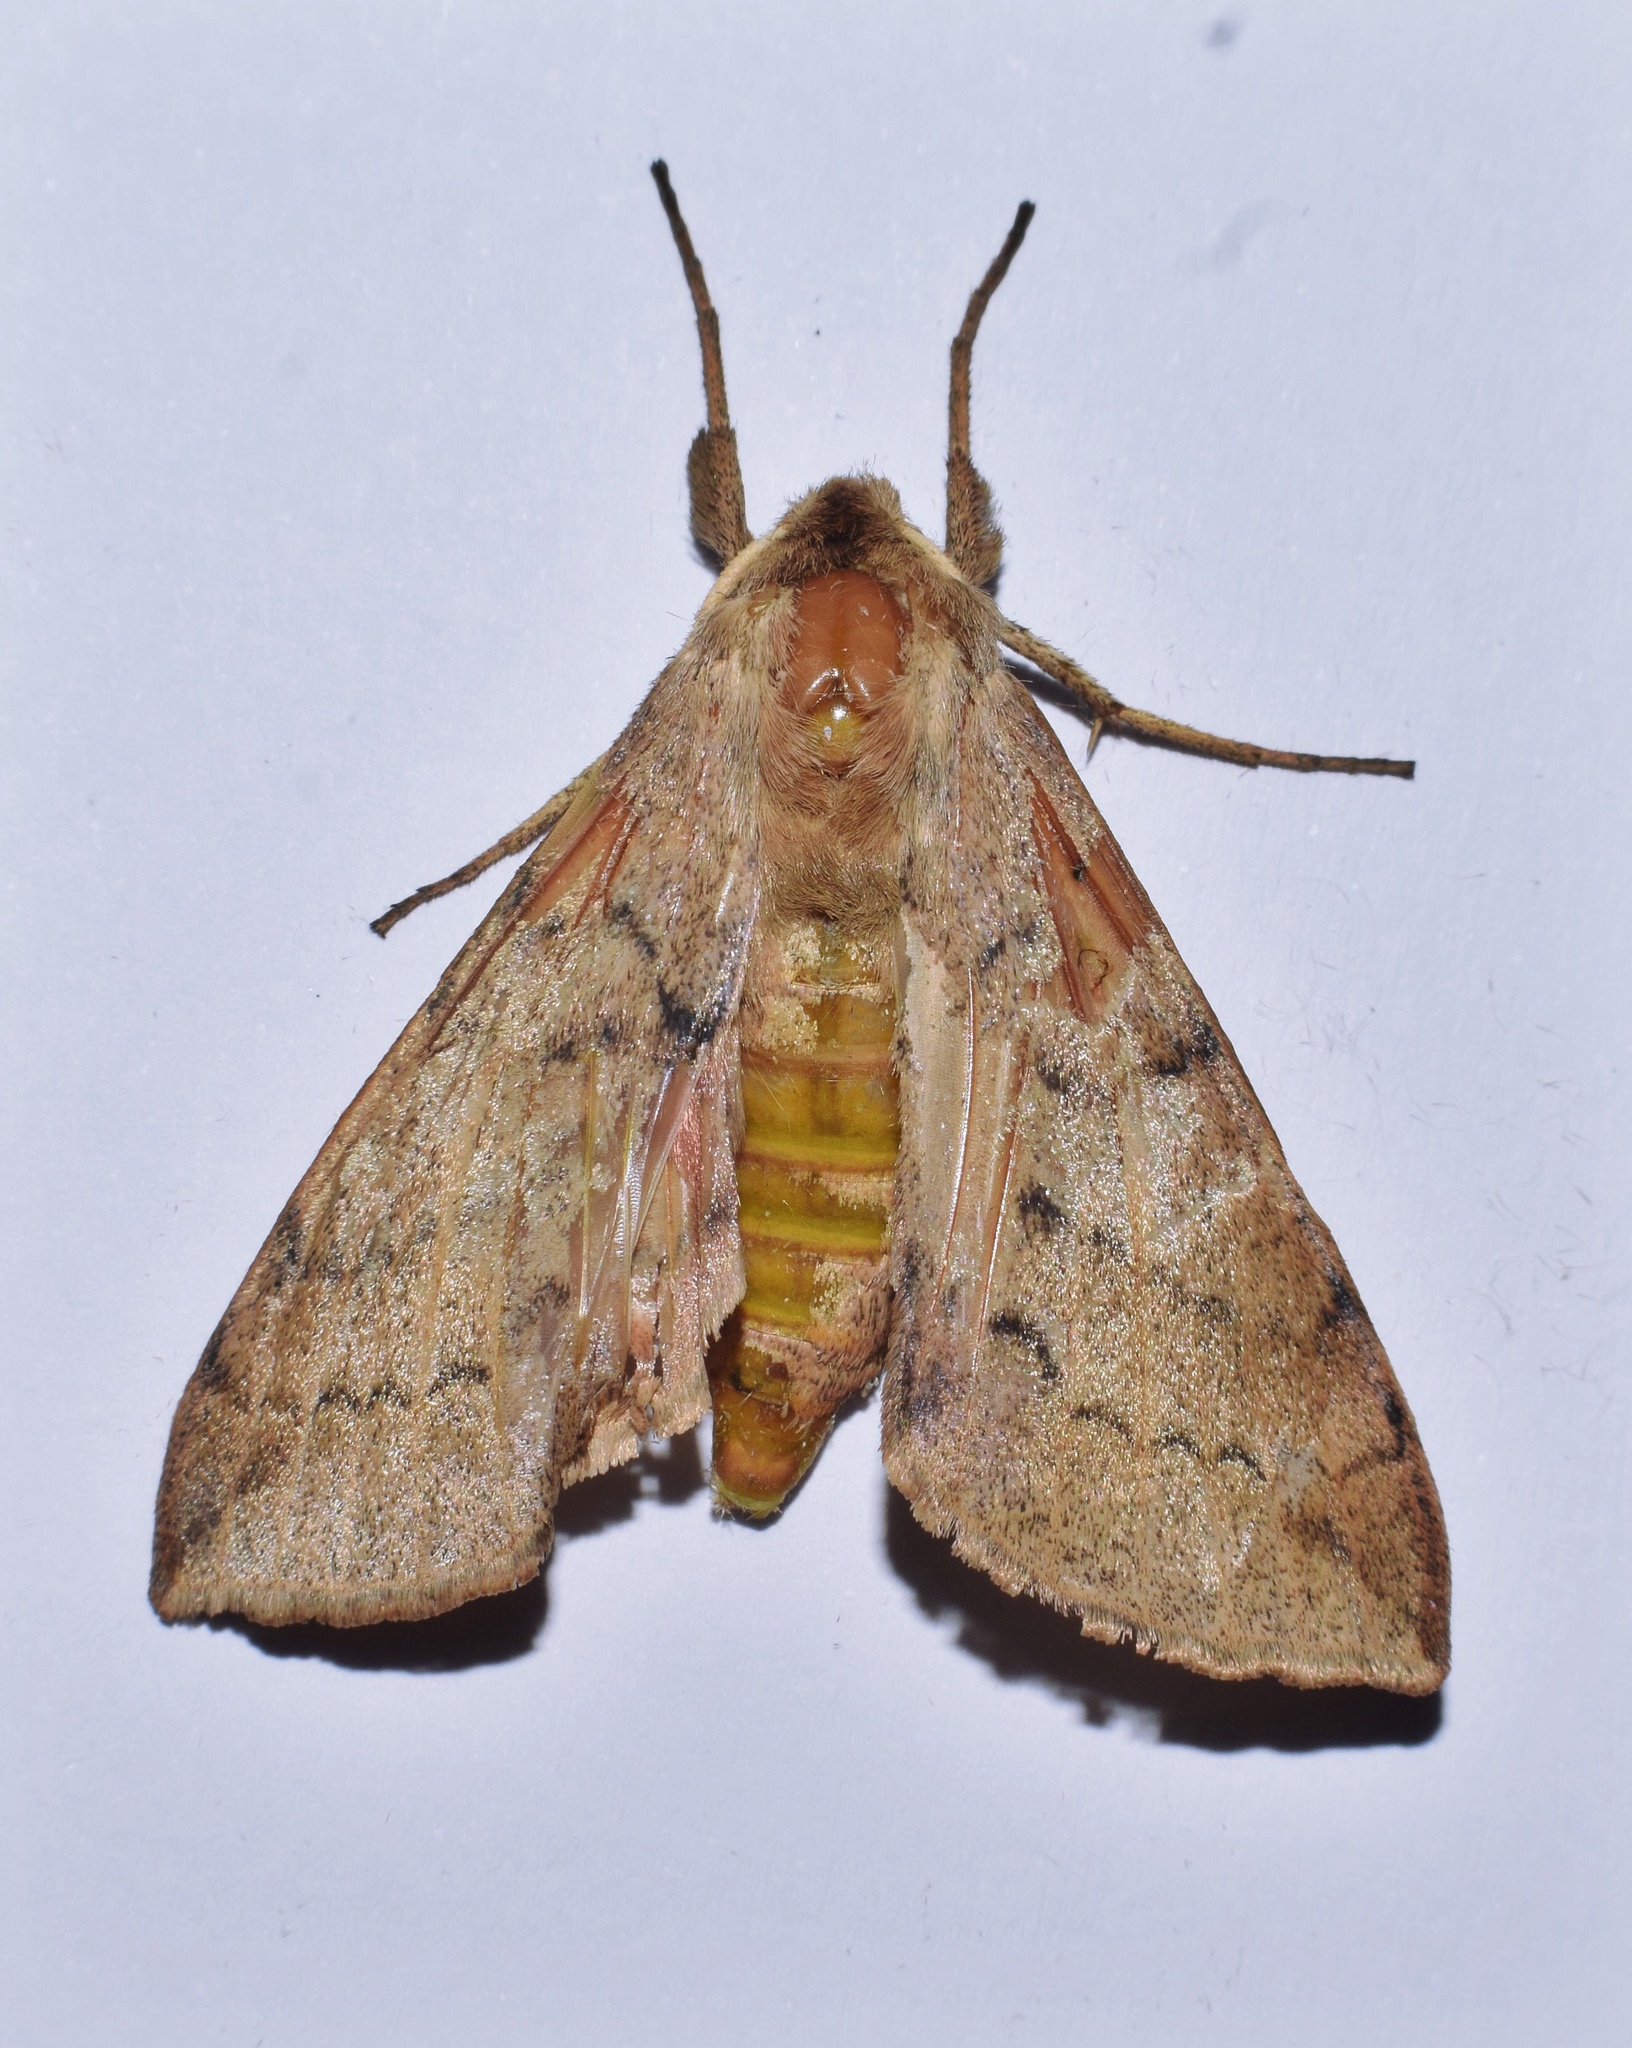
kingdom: Animalia
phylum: Arthropoda
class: Insecta
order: Lepidoptera
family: Sphingidae
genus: Pseudandriasa
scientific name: Pseudandriasa mutata
